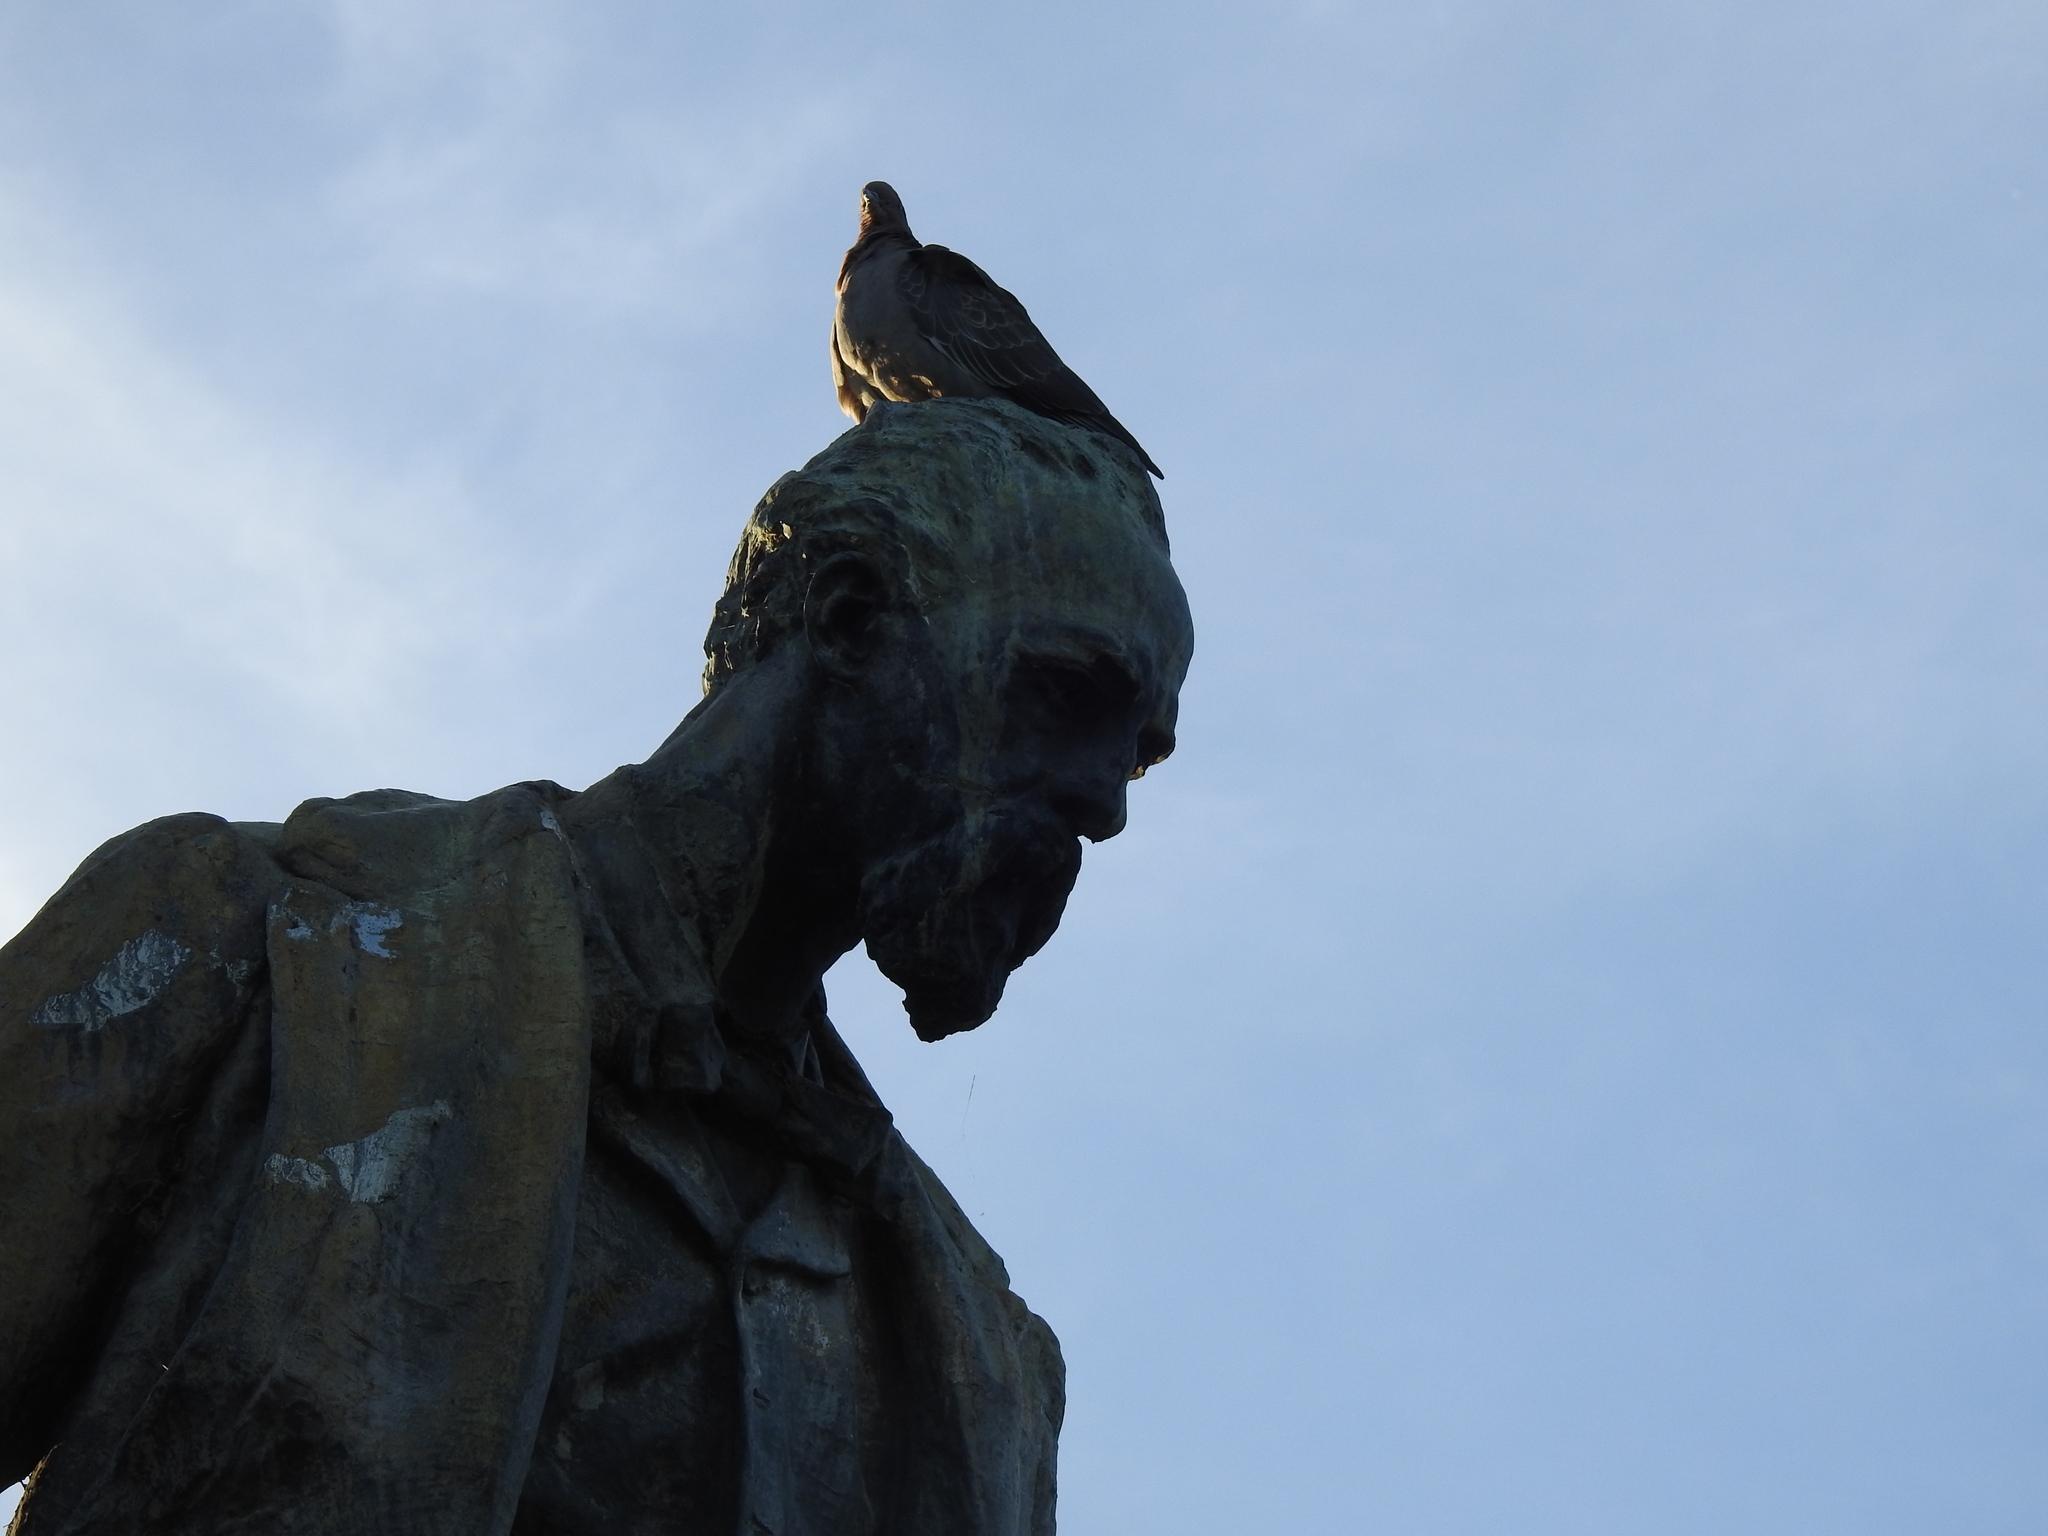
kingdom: Animalia
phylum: Chordata
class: Aves
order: Columbiformes
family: Columbidae
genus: Patagioenas
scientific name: Patagioenas picazuro
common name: Picazuro pigeon
